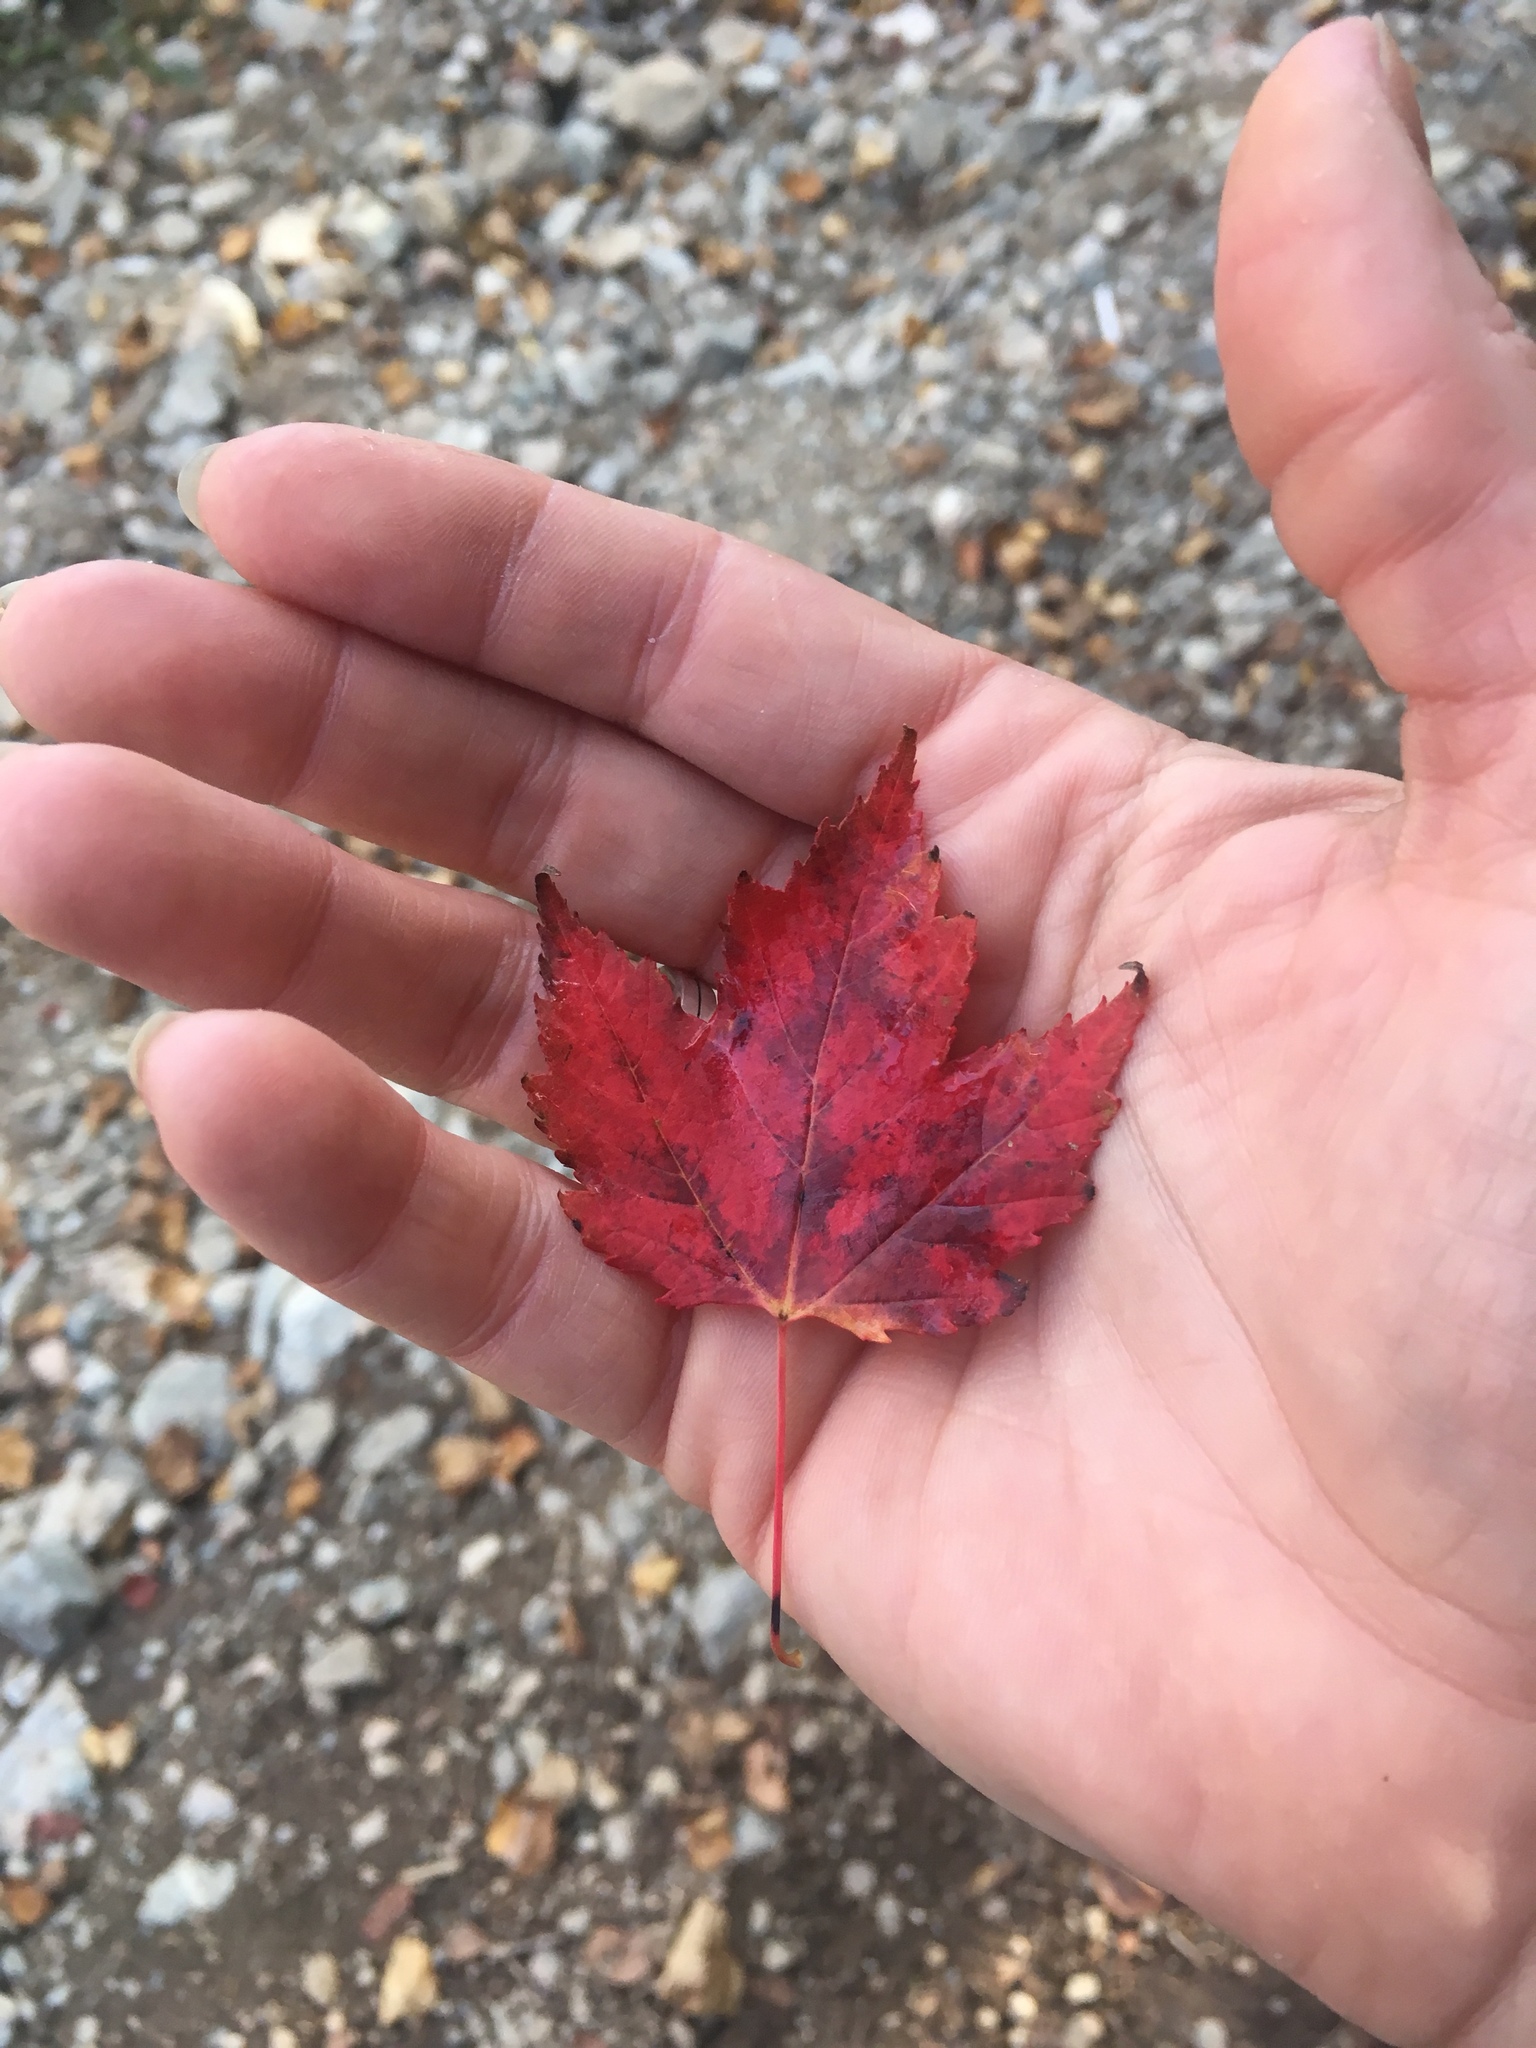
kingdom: Plantae
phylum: Tracheophyta
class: Magnoliopsida
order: Sapindales
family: Sapindaceae
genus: Acer
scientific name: Acer rubrum
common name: Red maple
